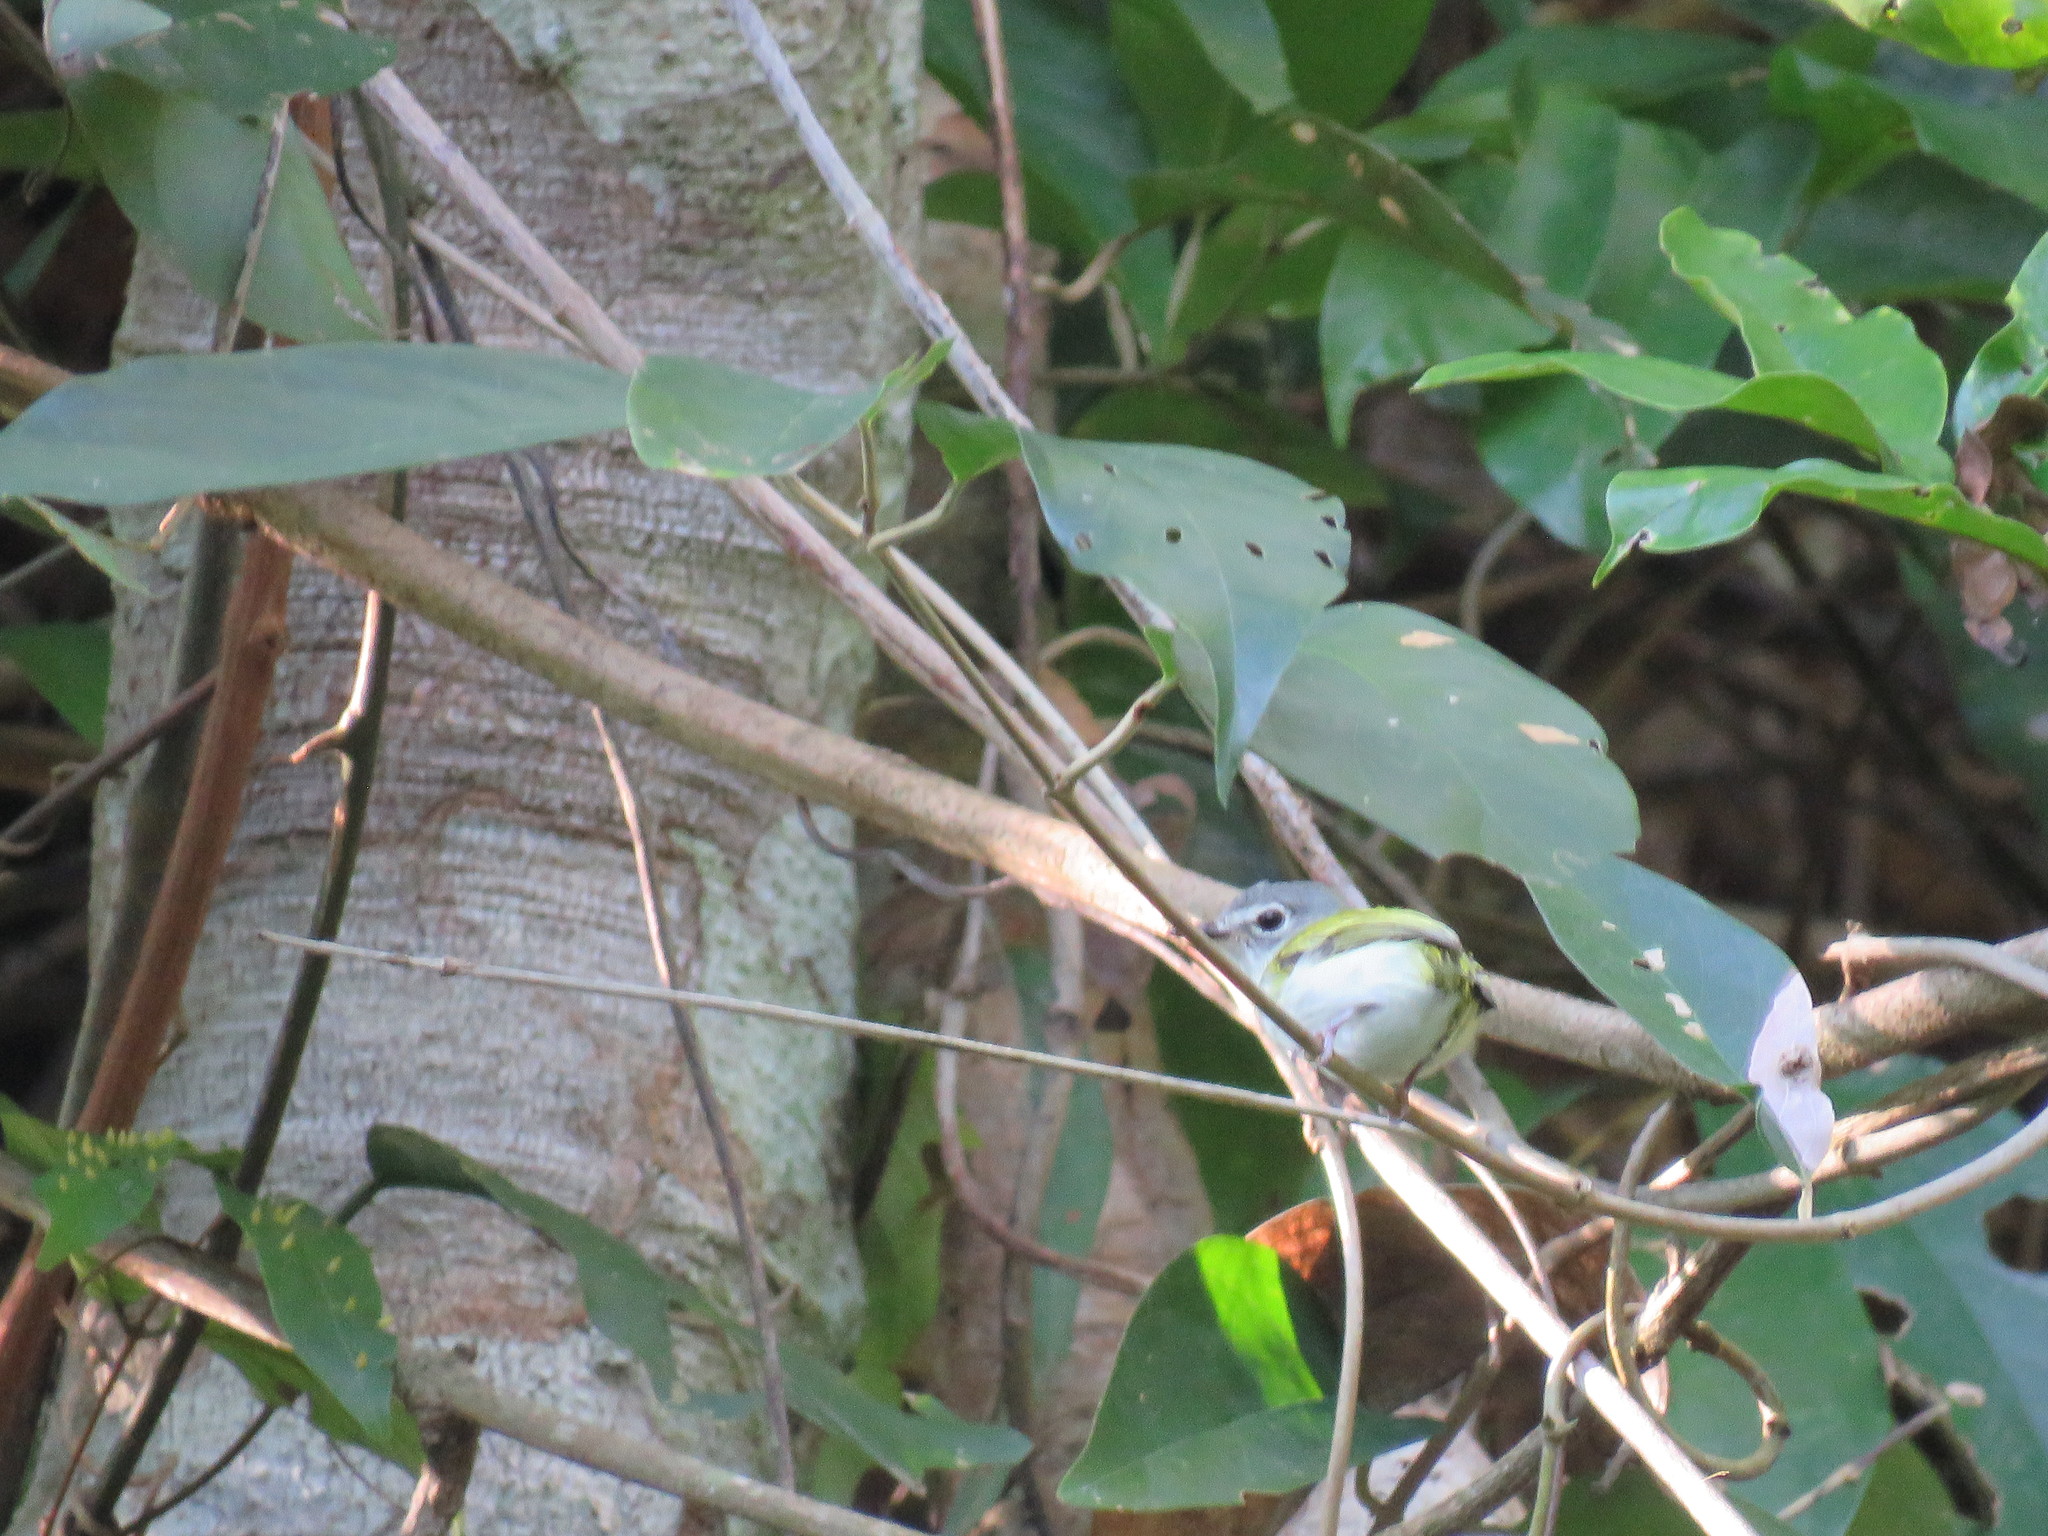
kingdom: Animalia
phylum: Chordata
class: Aves
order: Passeriformes
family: Tyrannidae
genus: Myiornis
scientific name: Myiornis ecaudatus
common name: Short-tailed pygmy tyrant
